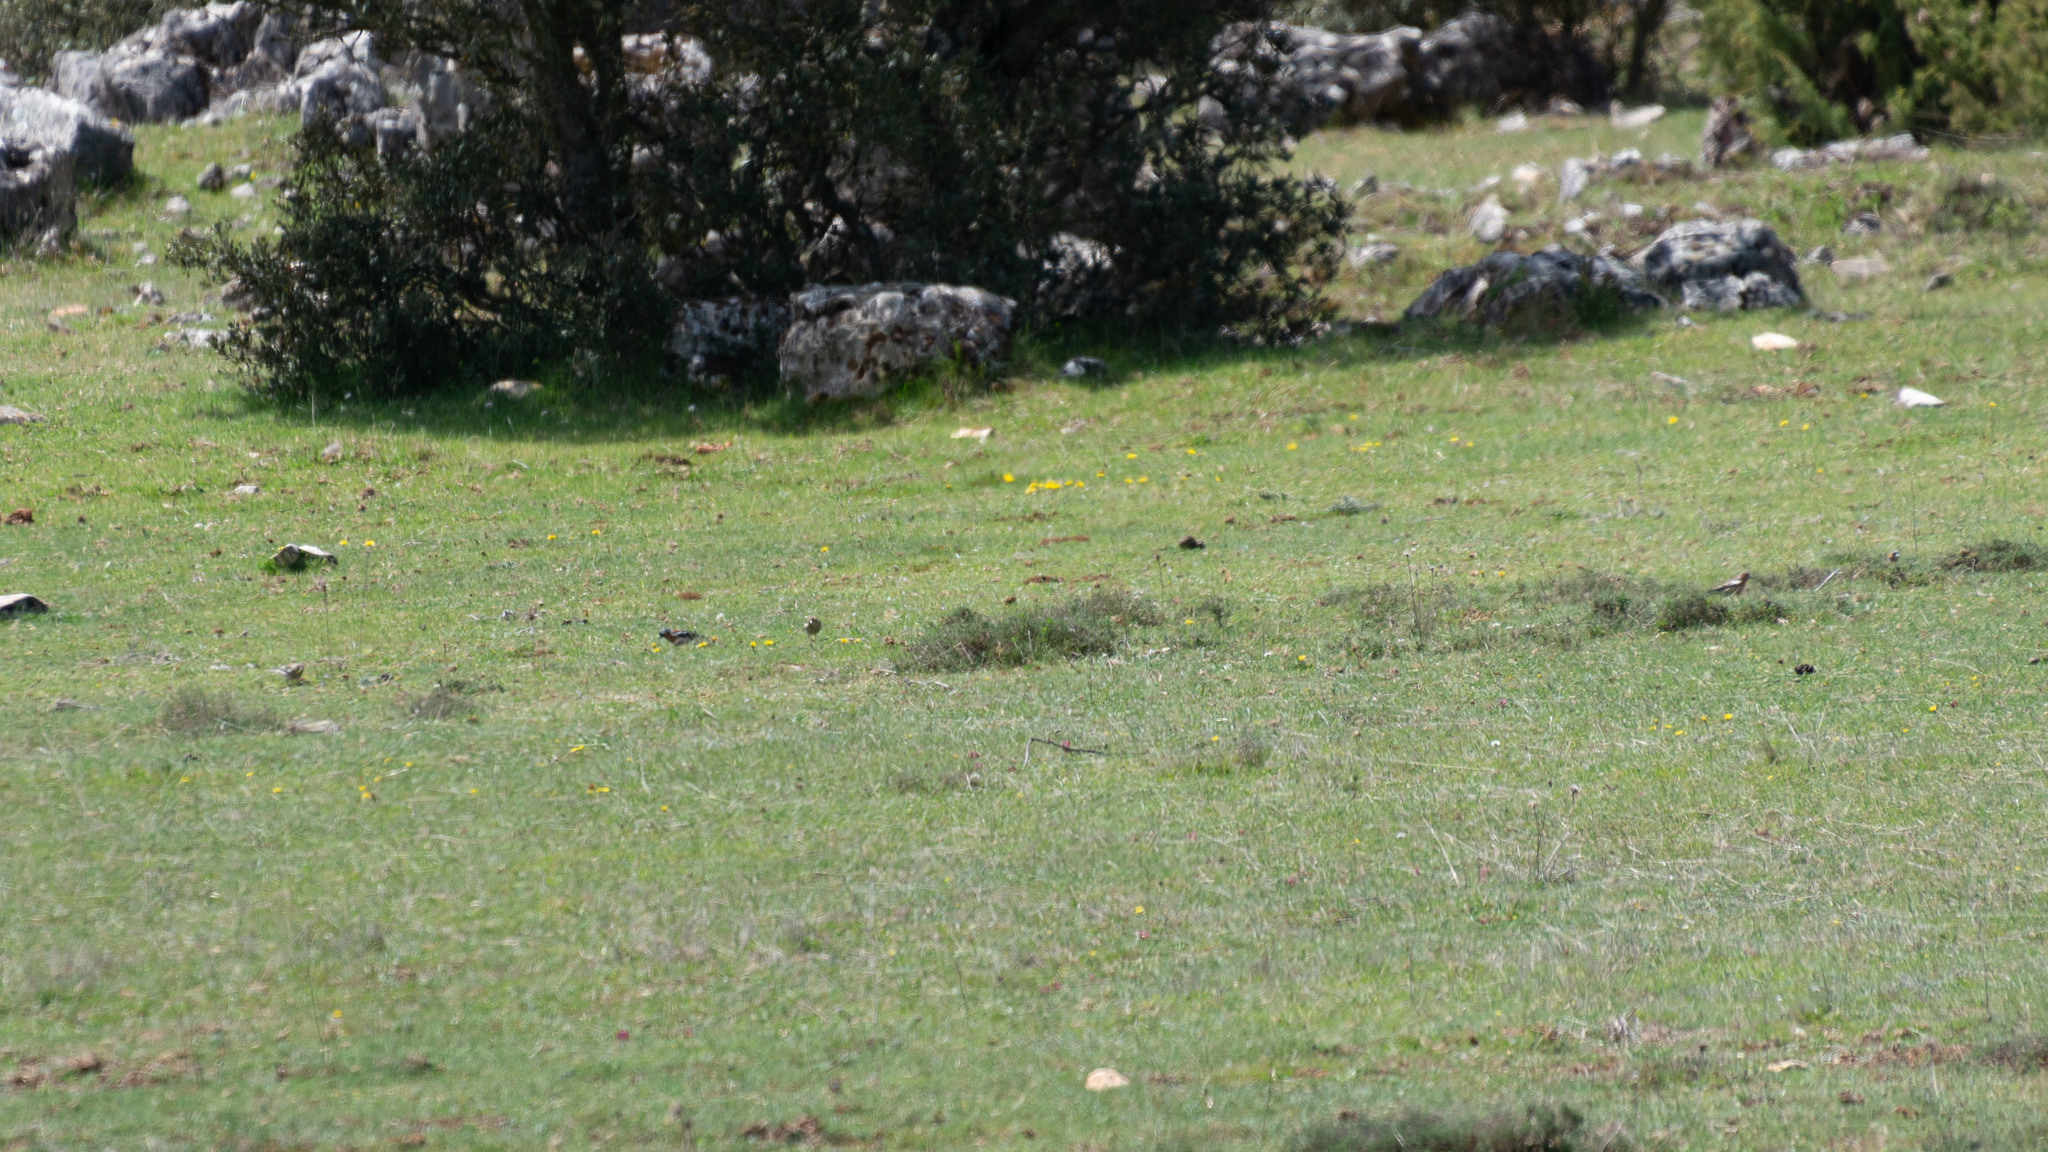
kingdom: Animalia
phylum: Chordata
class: Aves
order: Passeriformes
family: Fringillidae
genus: Fringilla
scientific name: Fringilla coelebs
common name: Common chaffinch
